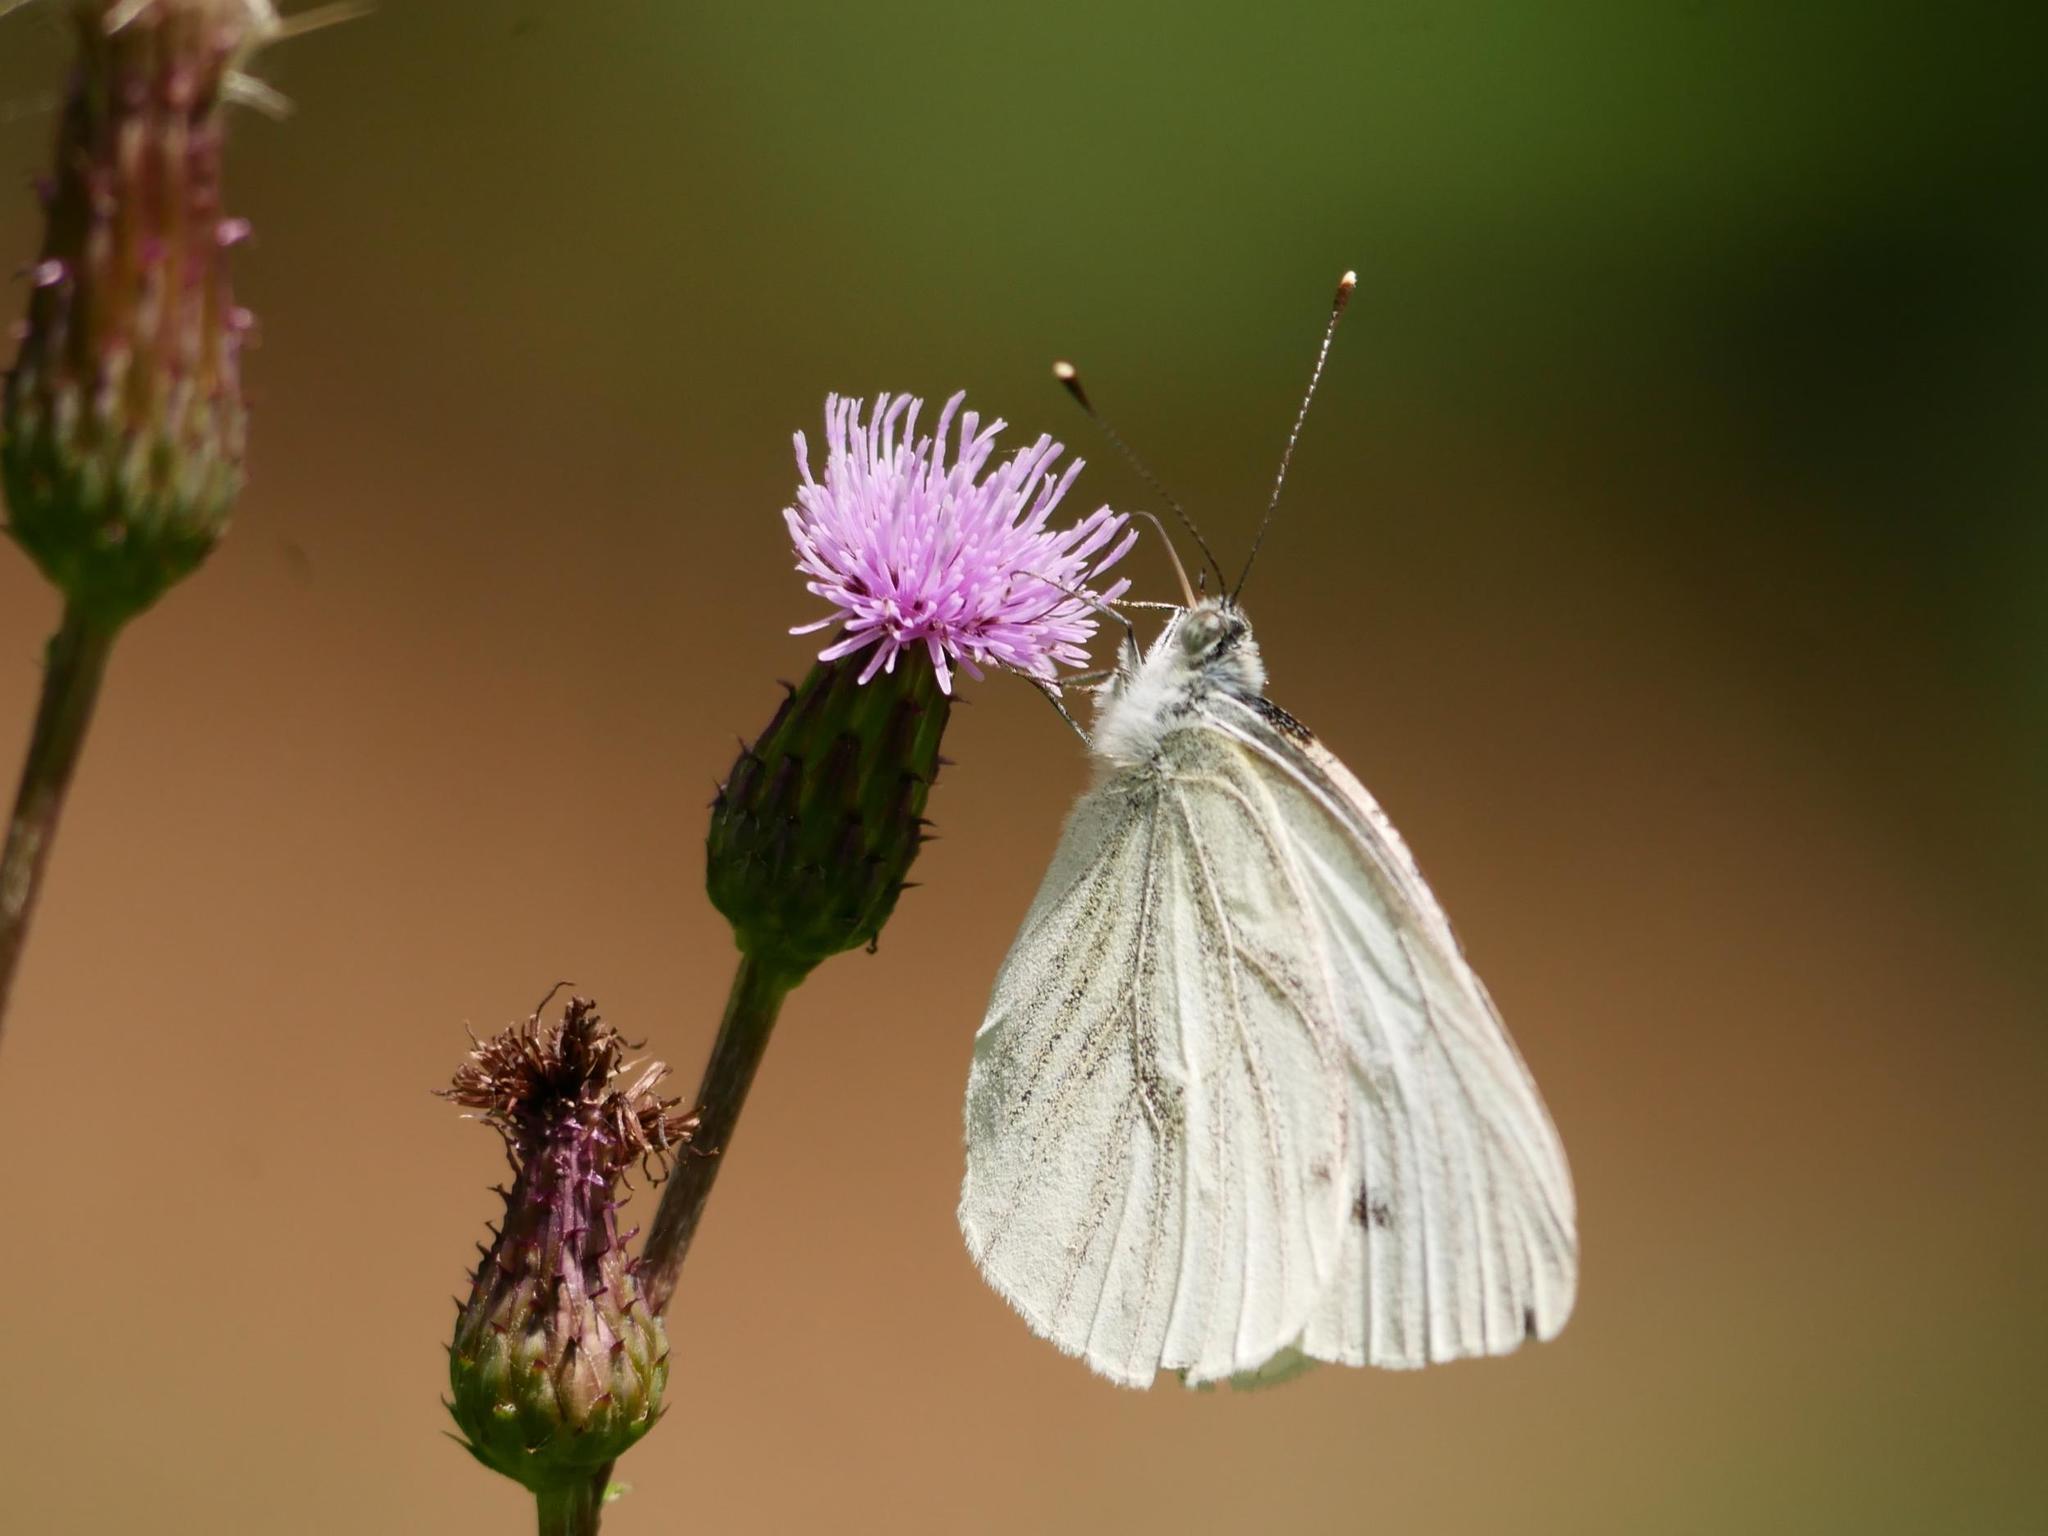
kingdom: Animalia
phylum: Arthropoda
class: Insecta
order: Lepidoptera
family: Pieridae
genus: Pieris
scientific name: Pieris napi
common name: Green-veined white
